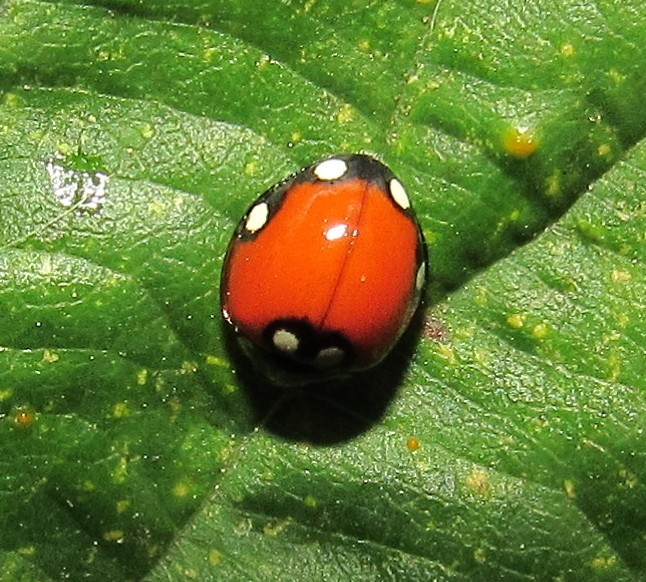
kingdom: Animalia
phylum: Arthropoda
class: Insecta
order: Coleoptera
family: Coccinellidae
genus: Cycloneda
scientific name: Cycloneda
